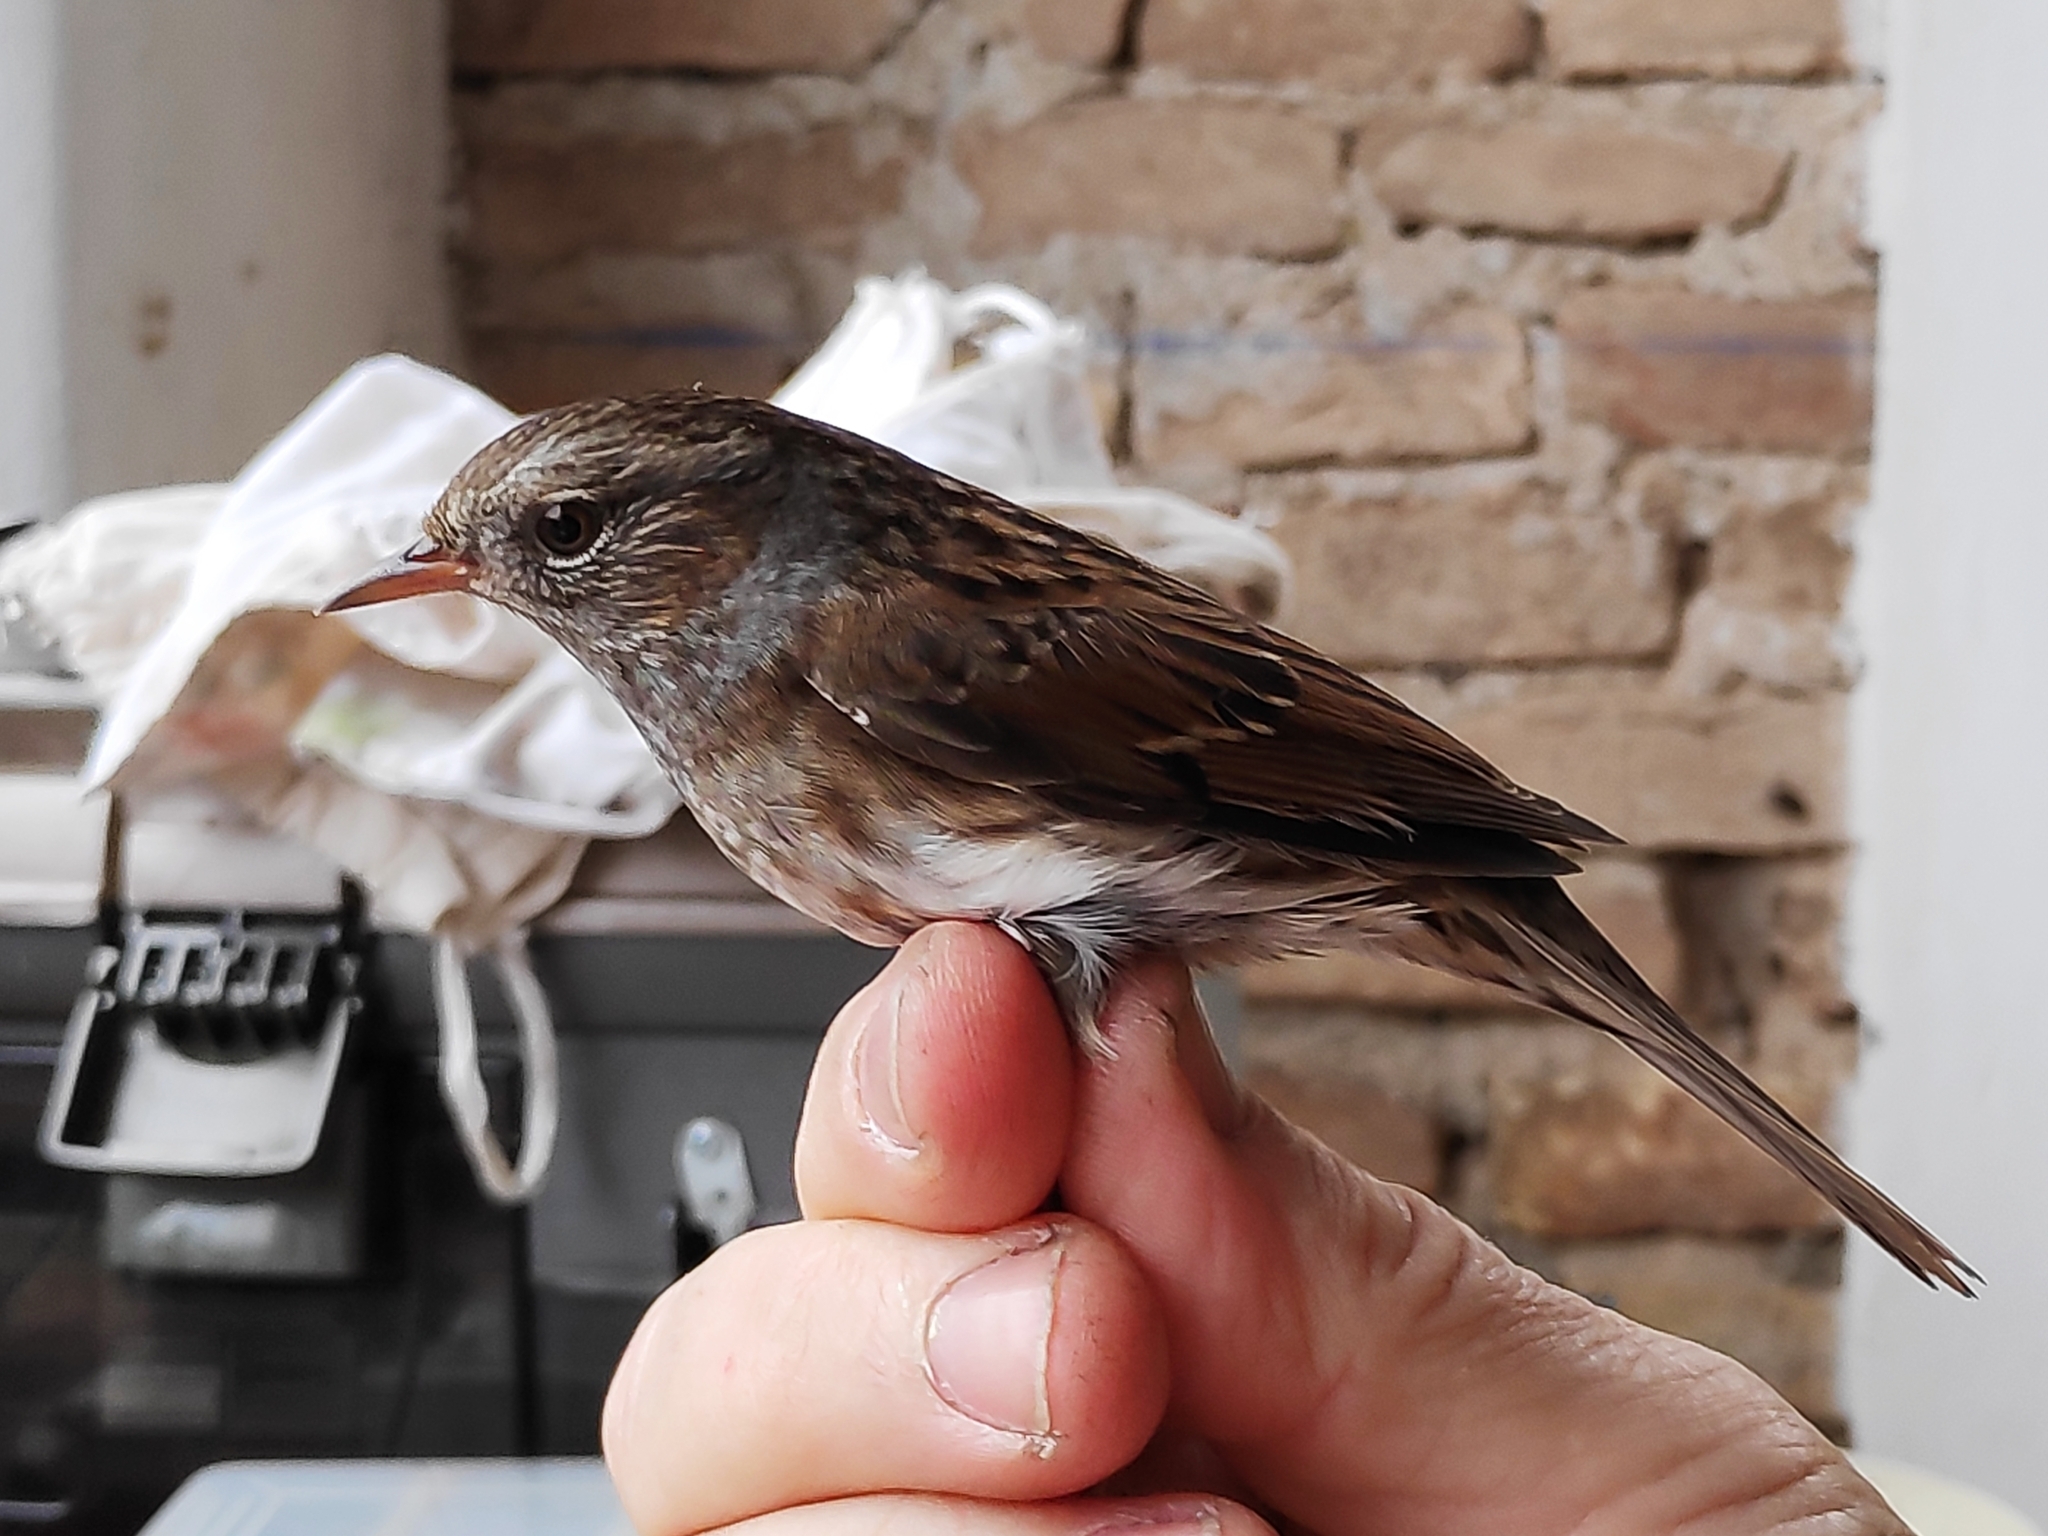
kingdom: Animalia
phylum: Chordata
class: Aves
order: Passeriformes
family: Prunellidae
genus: Prunella
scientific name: Prunella modularis
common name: Dunnock
